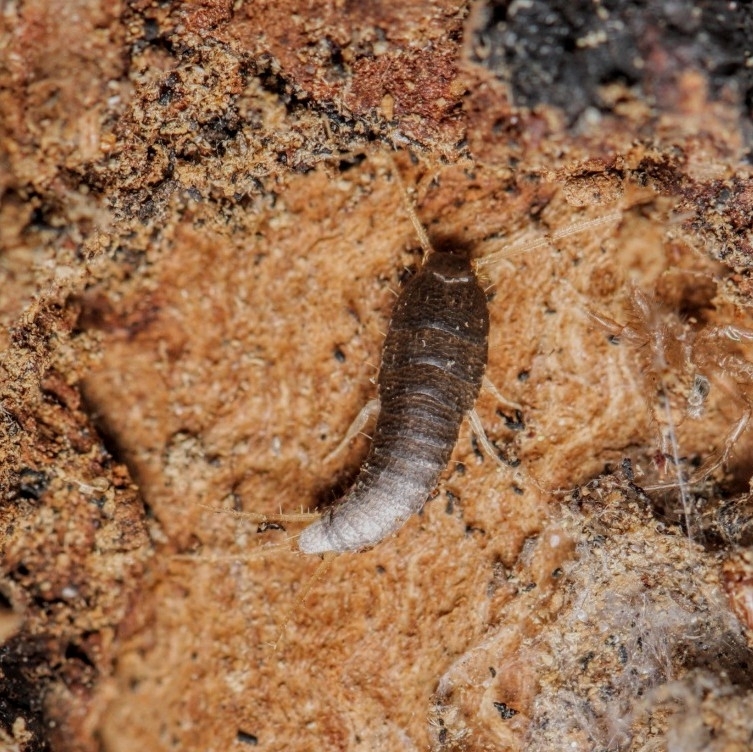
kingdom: Animalia
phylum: Arthropoda
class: Insecta
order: Zygentoma
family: Lepismatidae
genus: Lepisma
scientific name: Lepisma saccharinum
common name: Silverfish
